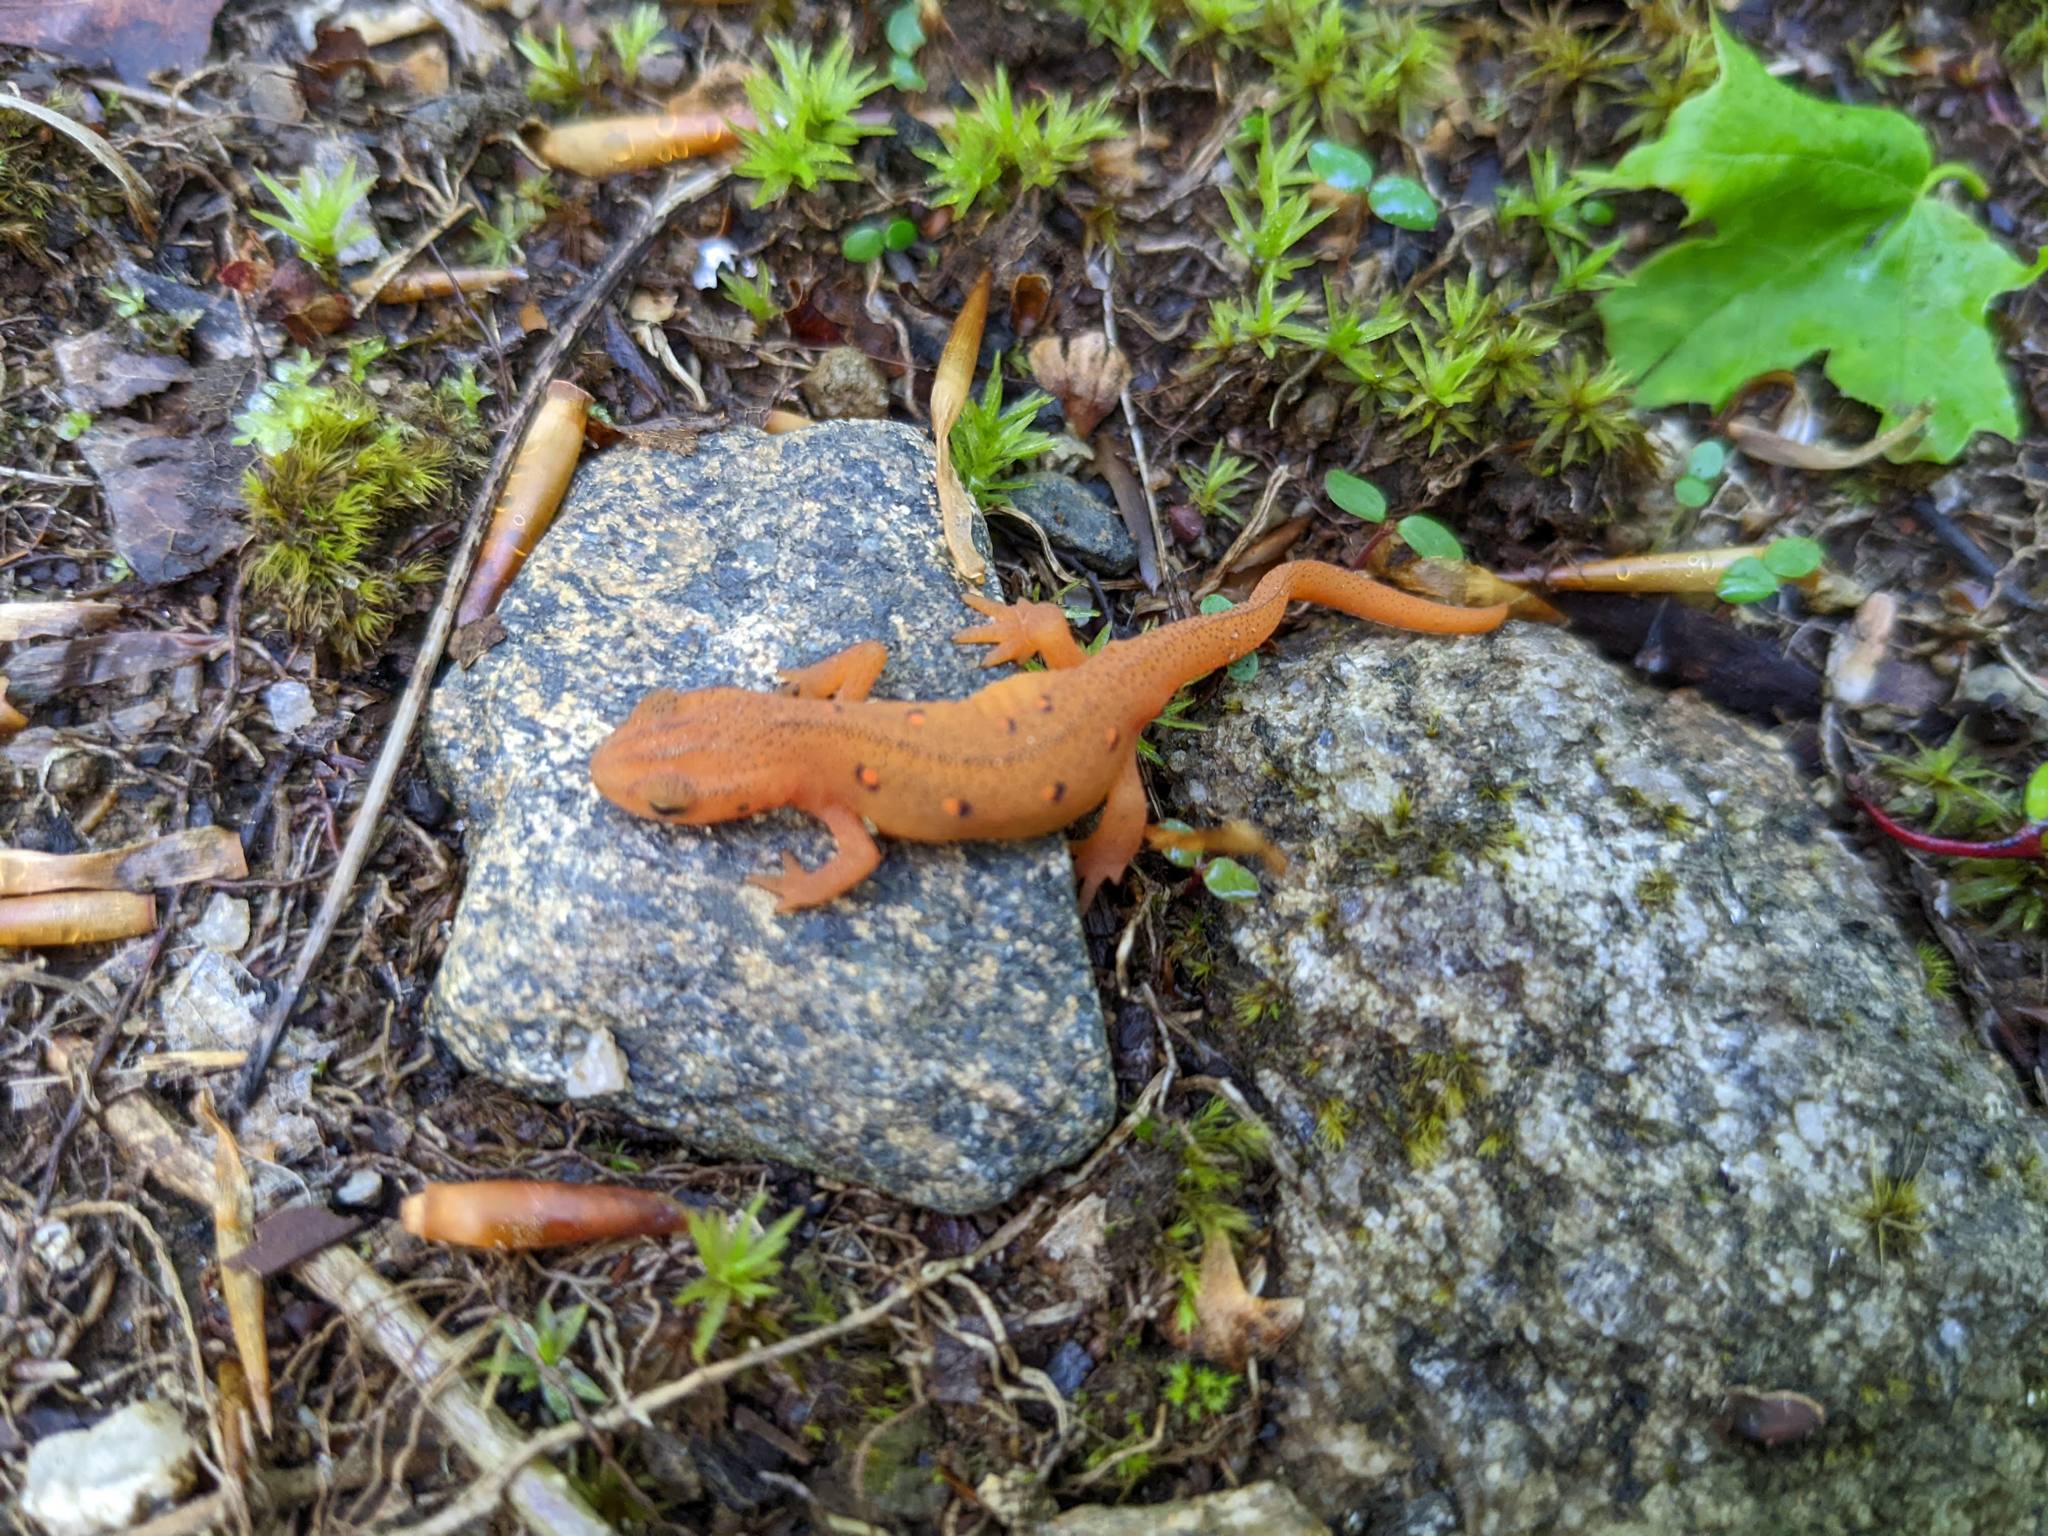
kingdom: Animalia
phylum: Chordata
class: Amphibia
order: Caudata
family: Salamandridae
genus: Notophthalmus
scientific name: Notophthalmus viridescens
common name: Eastern newt
